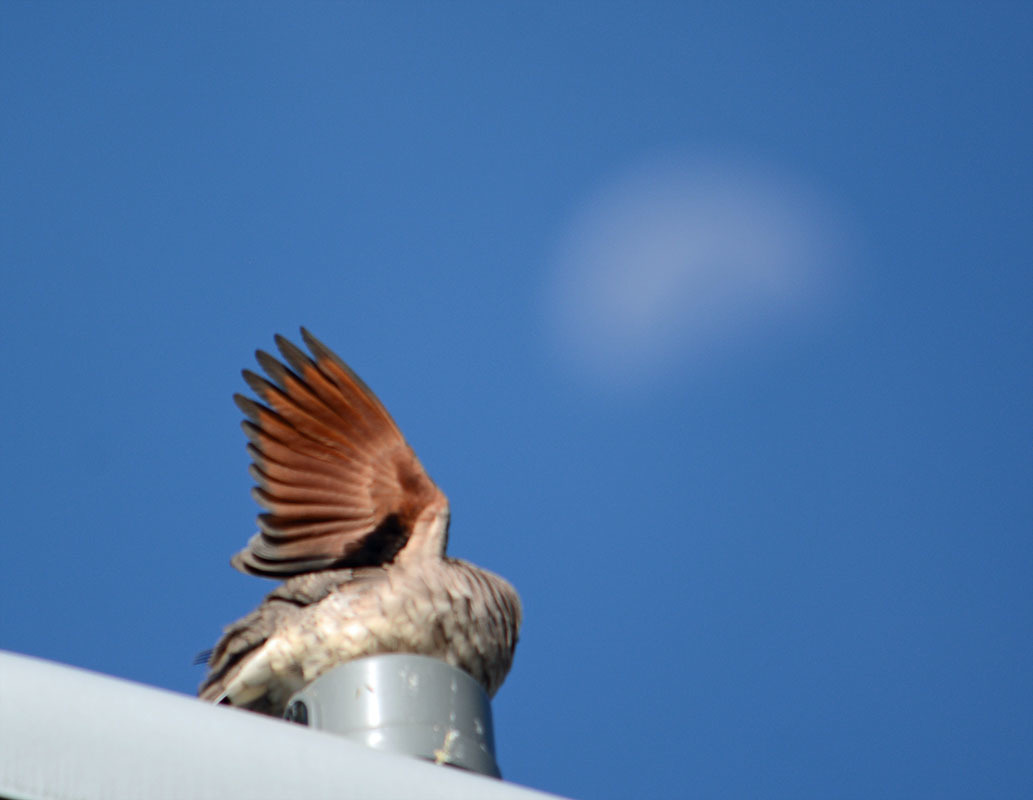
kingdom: Animalia
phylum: Chordata
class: Aves
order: Columbiformes
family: Columbidae
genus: Columbina
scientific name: Columbina inca
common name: Inca dove
